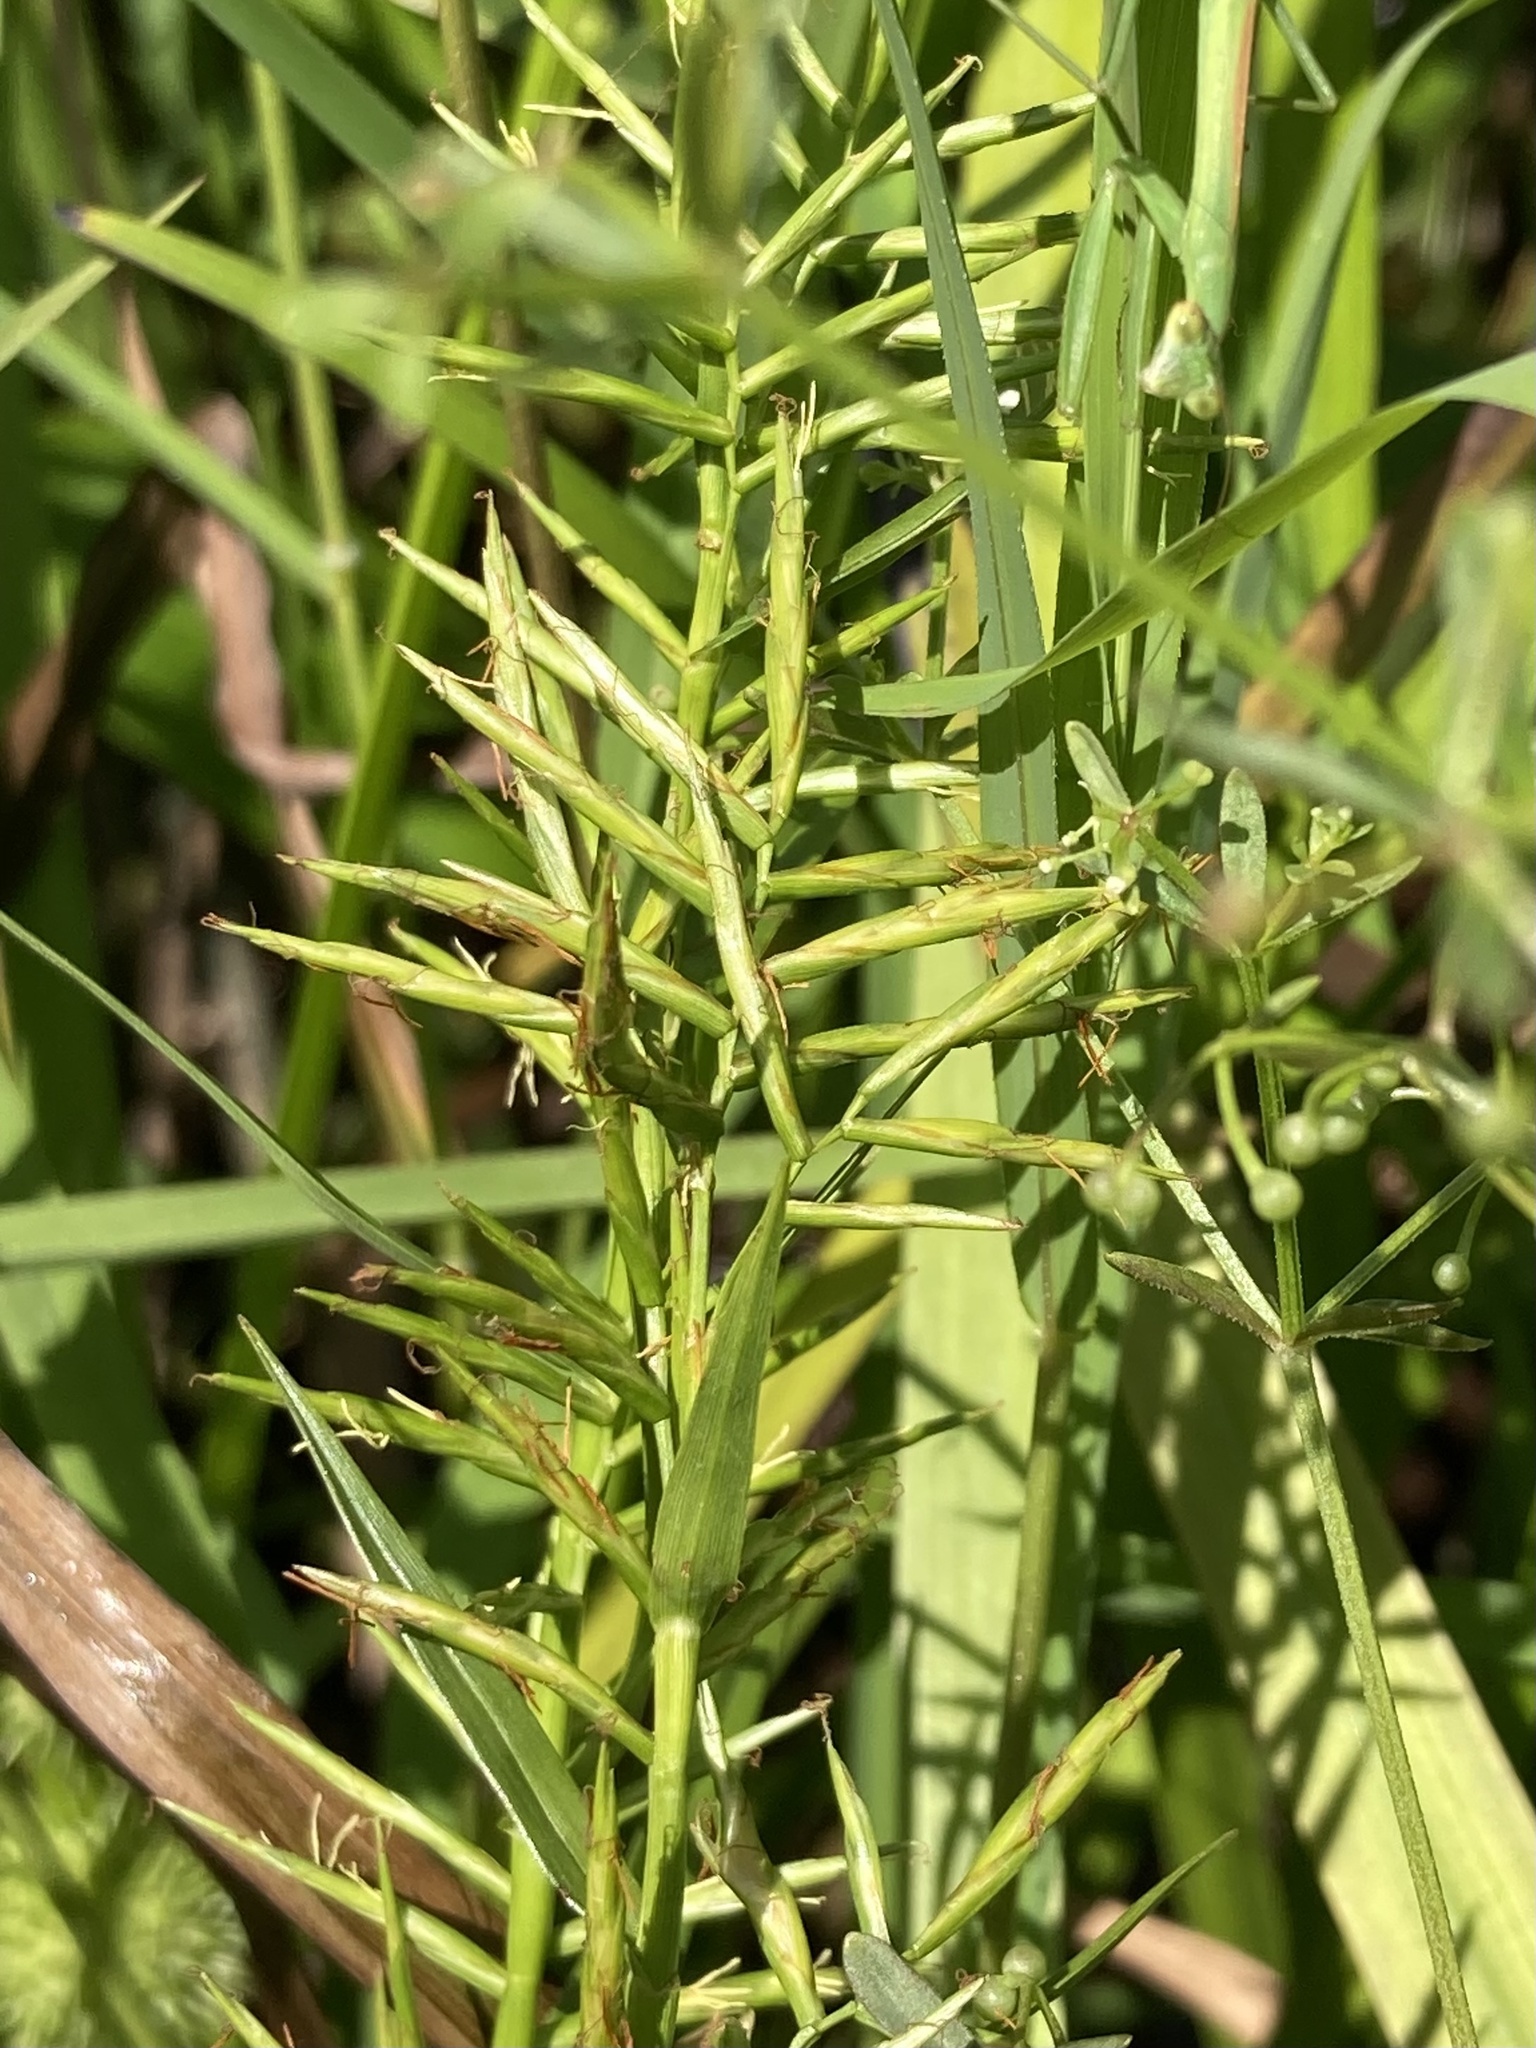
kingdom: Plantae
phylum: Tracheophyta
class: Liliopsida
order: Poales
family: Cyperaceae
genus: Dulichium
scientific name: Dulichium arundinaceum
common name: Three-way sedge
